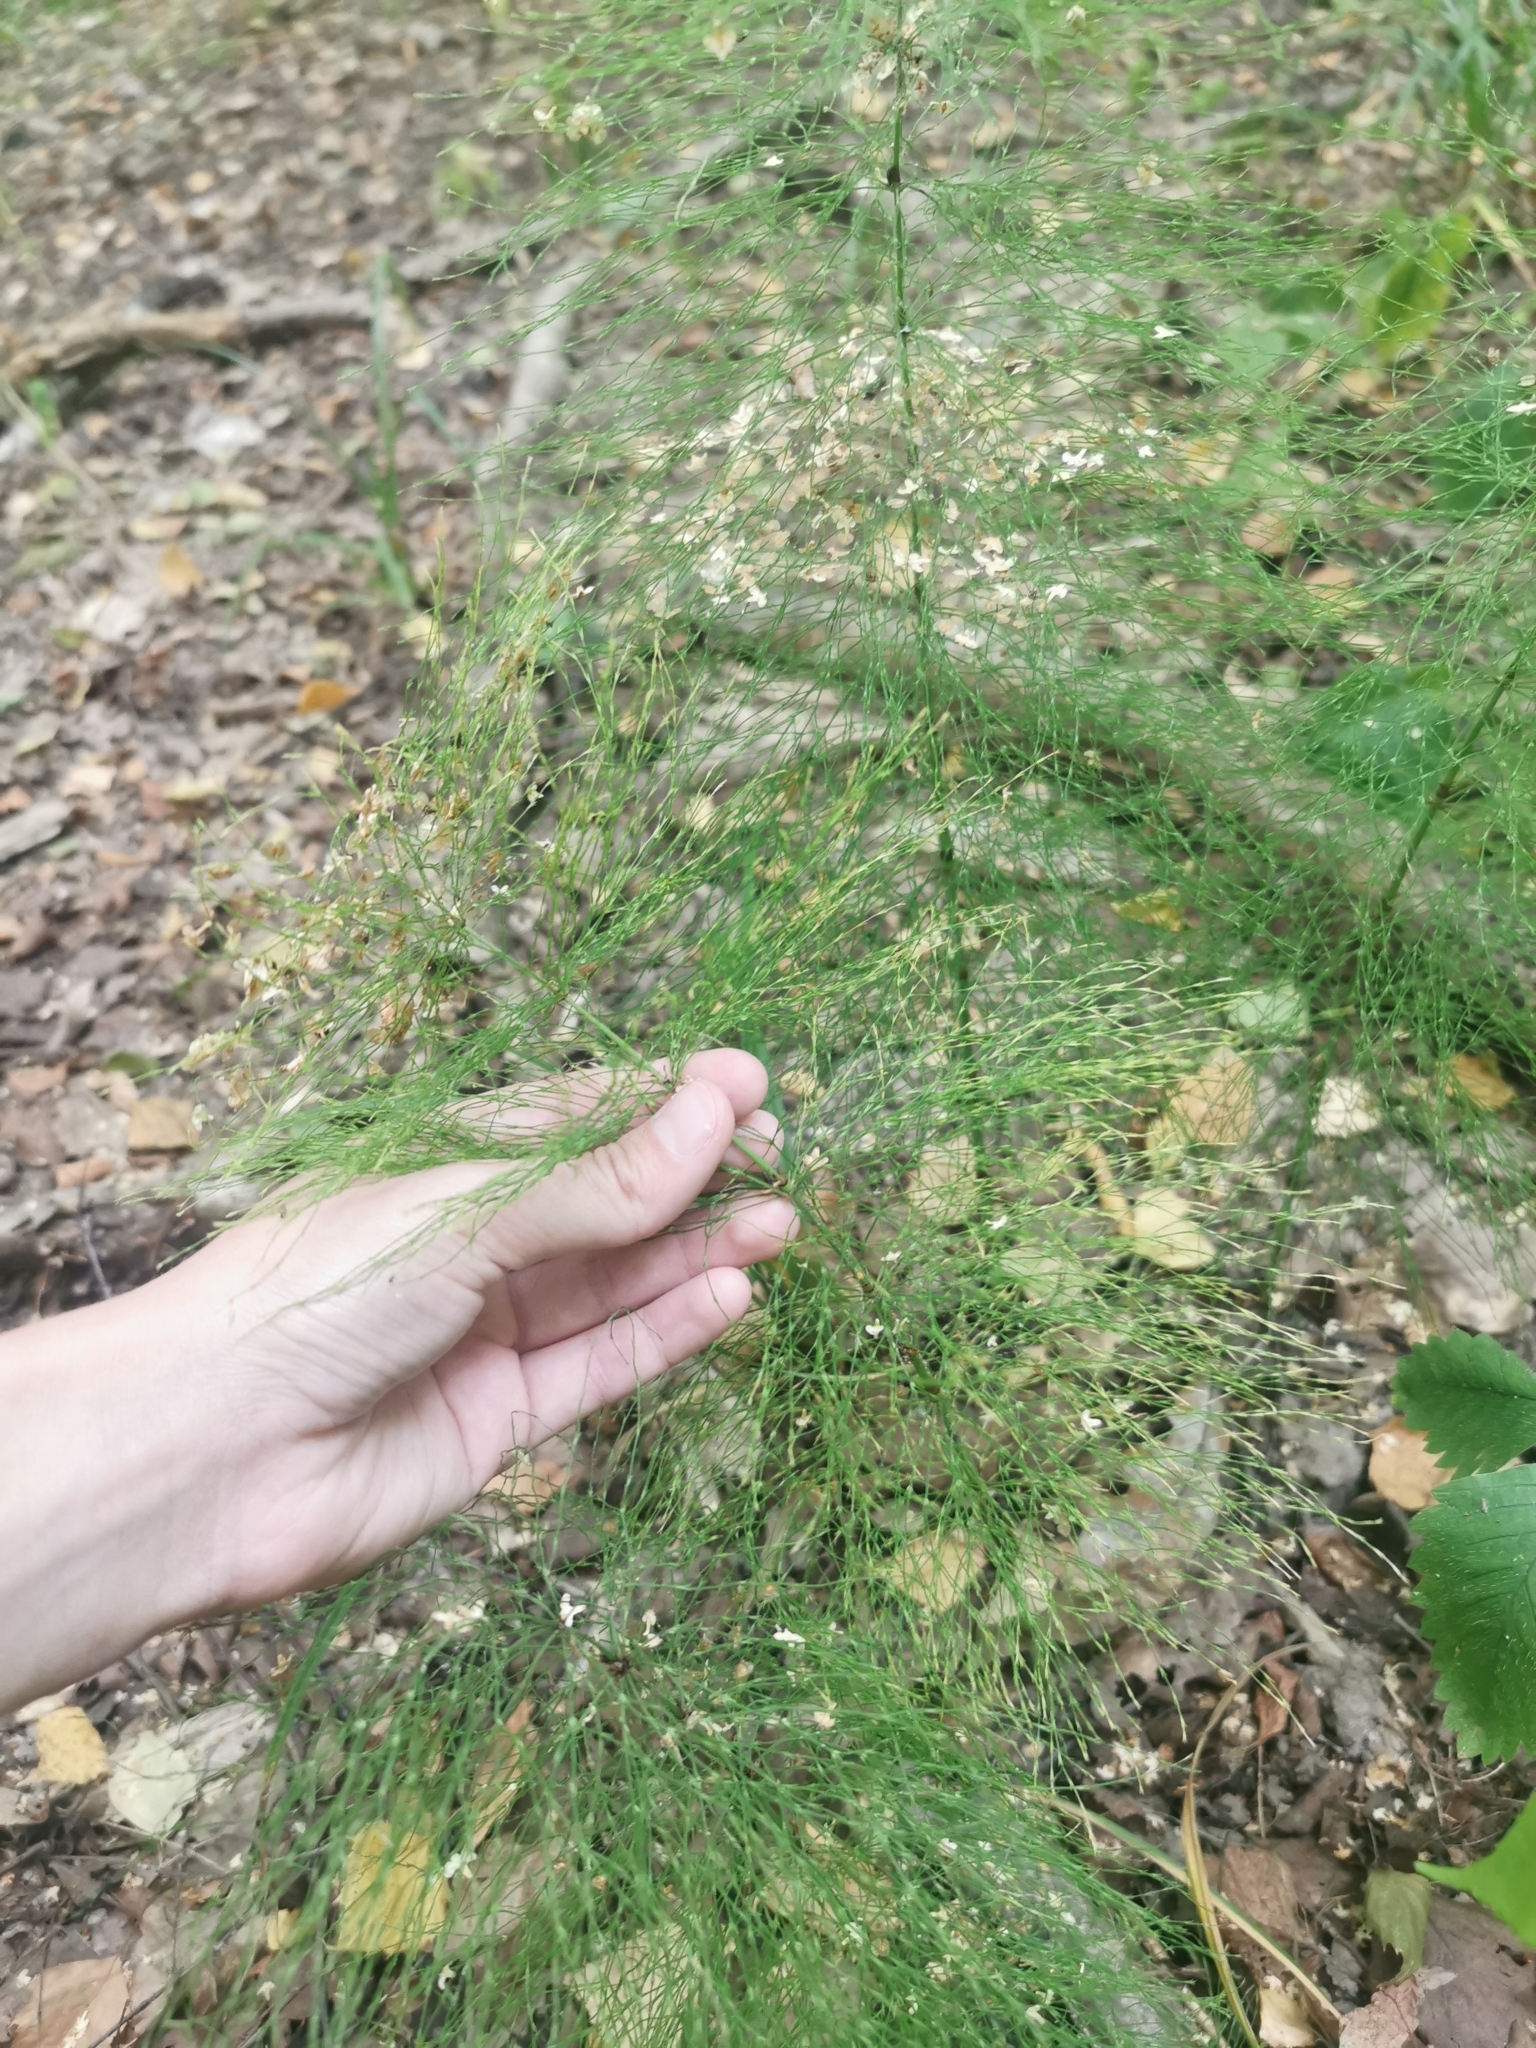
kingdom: Plantae
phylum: Tracheophyta
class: Polypodiopsida
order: Equisetales
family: Equisetaceae
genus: Equisetum
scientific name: Equisetum sylvaticum
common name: Wood horsetail
